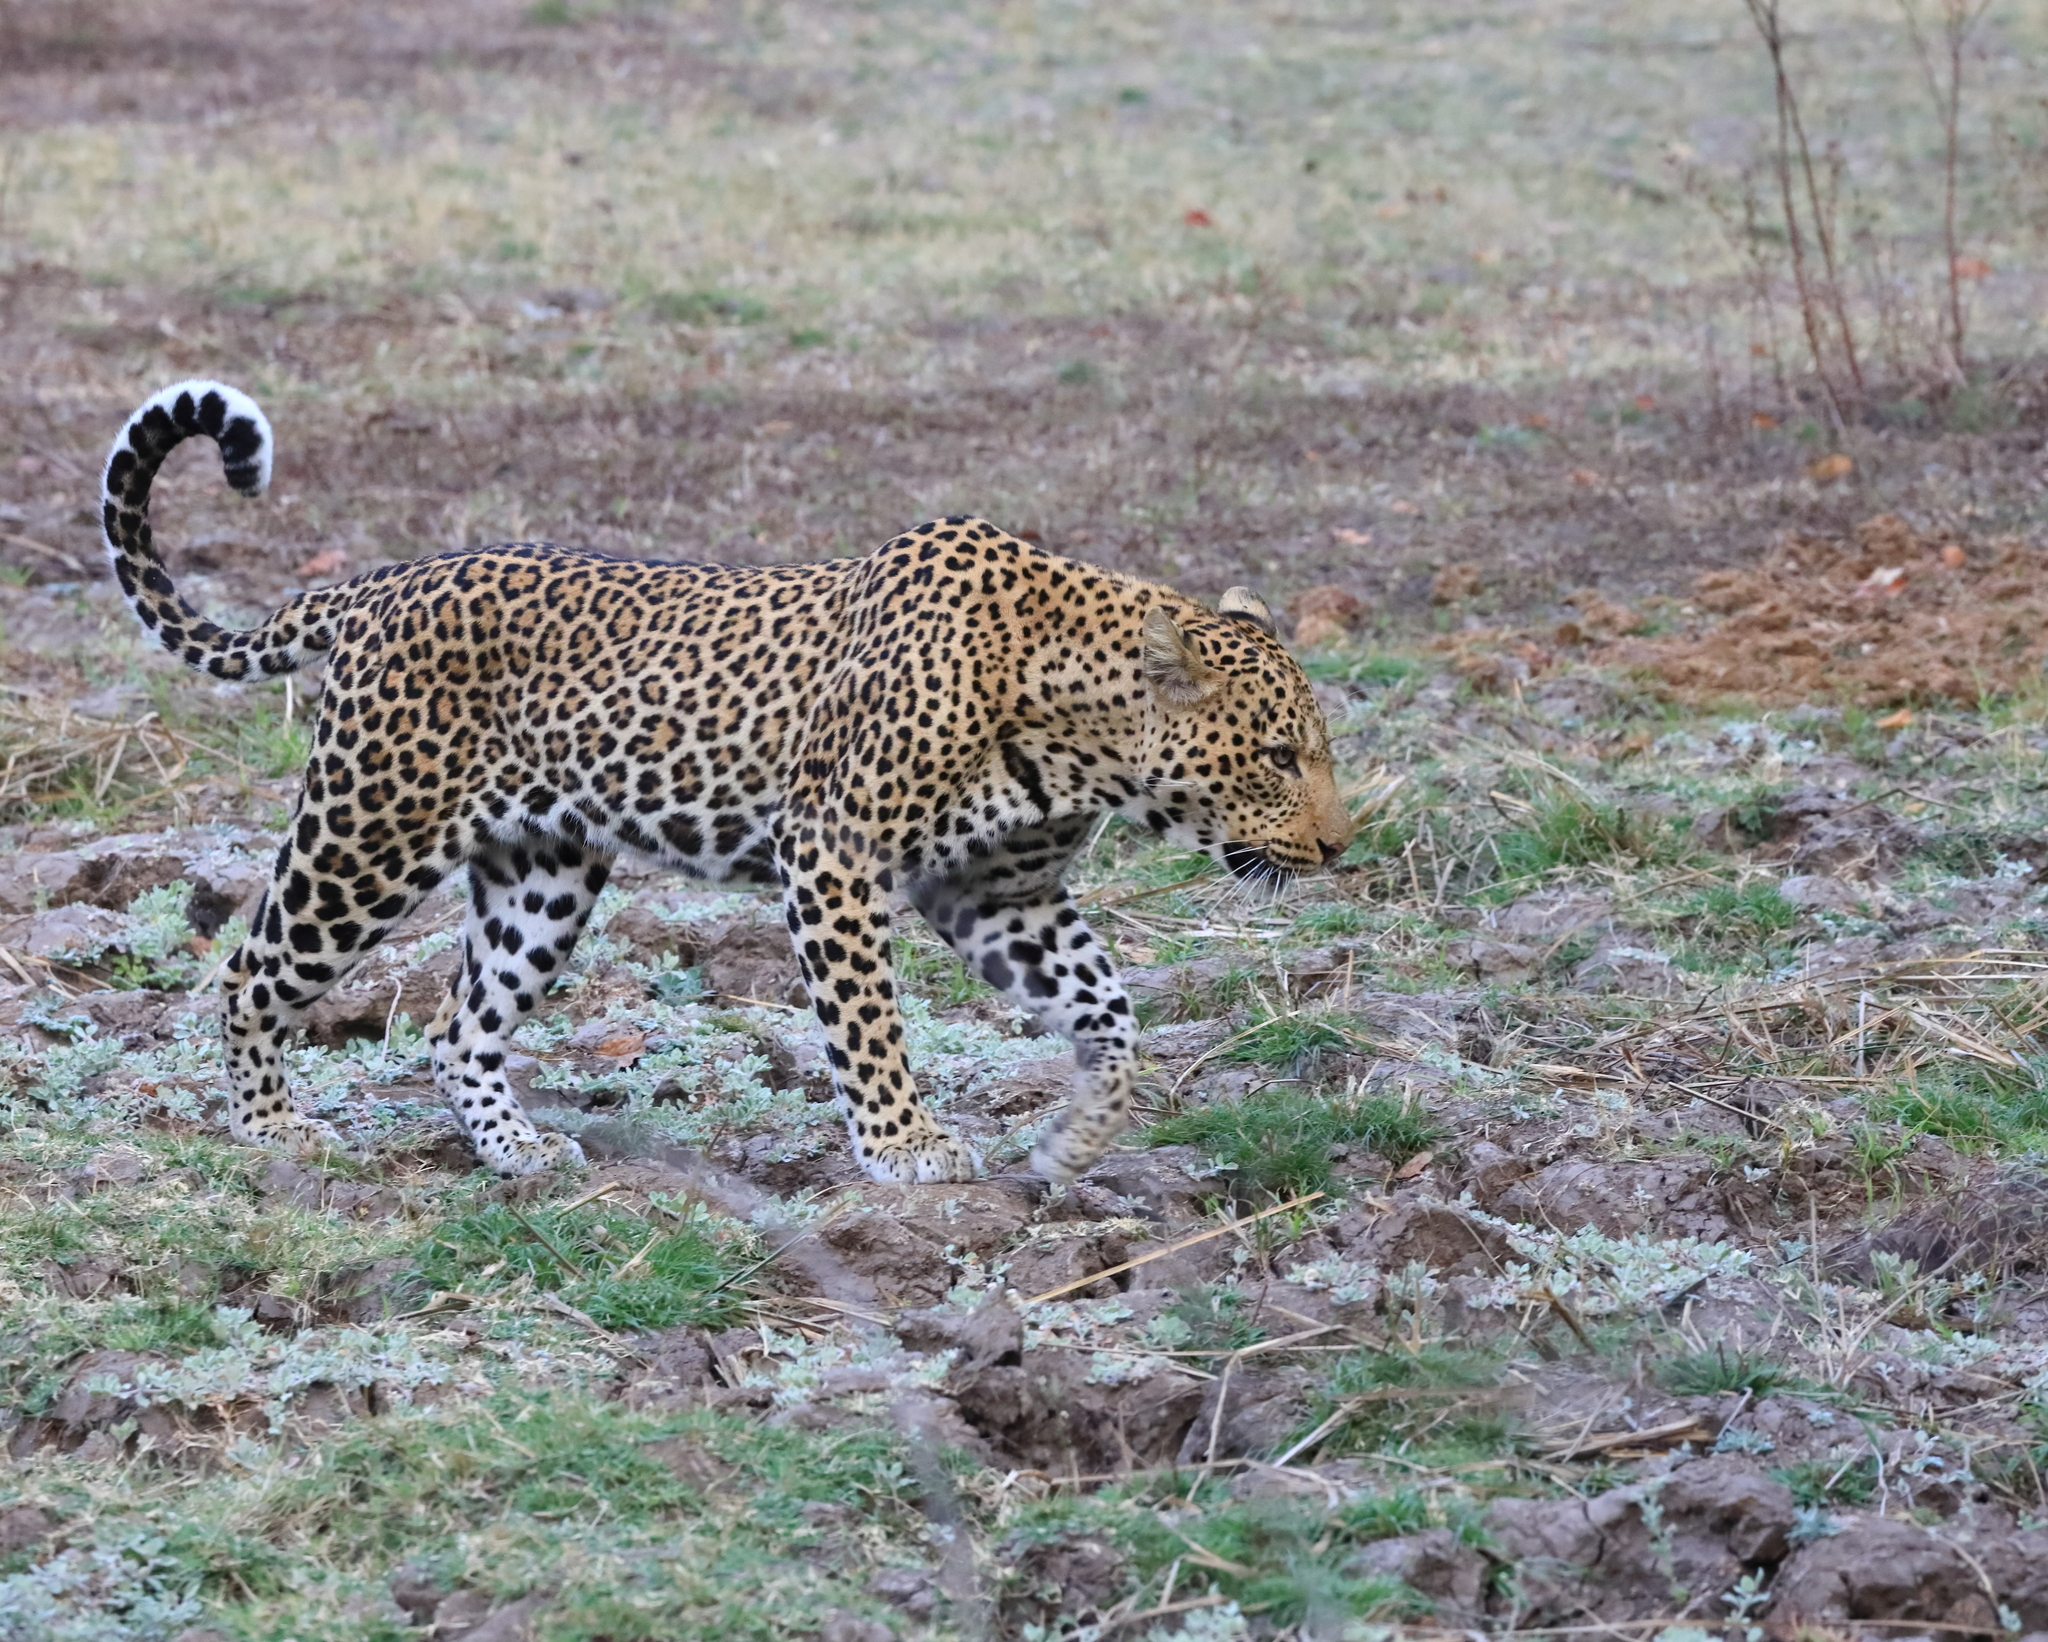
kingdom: Animalia
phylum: Chordata
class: Mammalia
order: Carnivora
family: Felidae
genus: Panthera
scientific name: Panthera pardus
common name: Leopard
